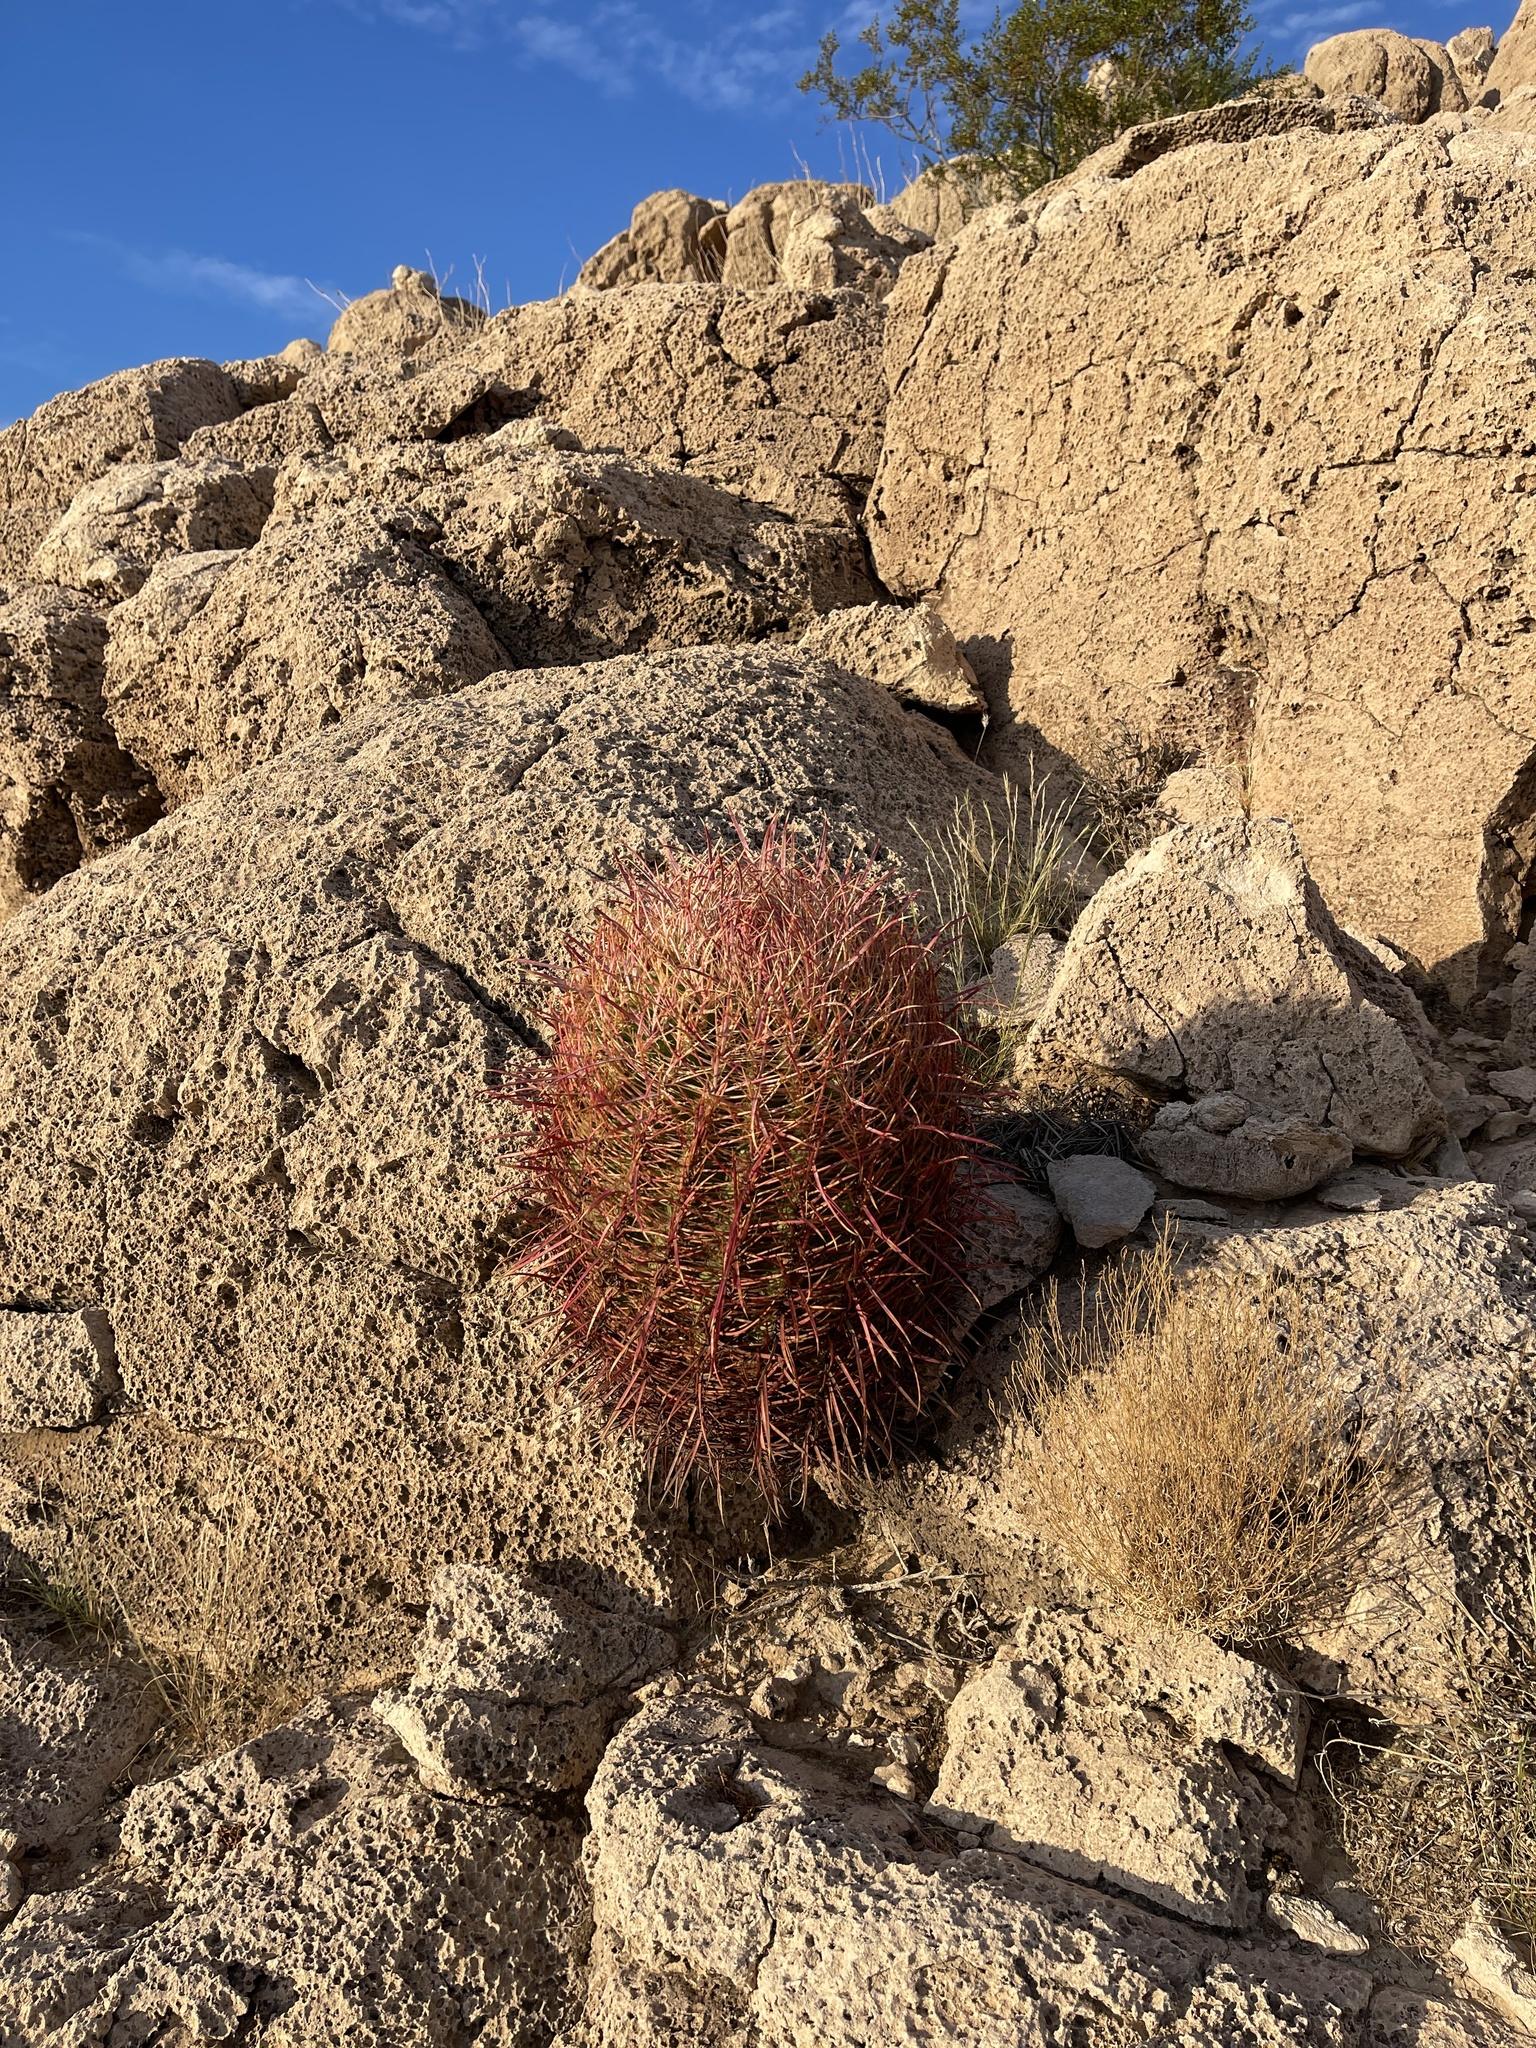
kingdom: Plantae
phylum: Tracheophyta
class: Magnoliopsida
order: Caryophyllales
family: Cactaceae
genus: Ferocactus
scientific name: Ferocactus cylindraceus
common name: California barrel cactus
